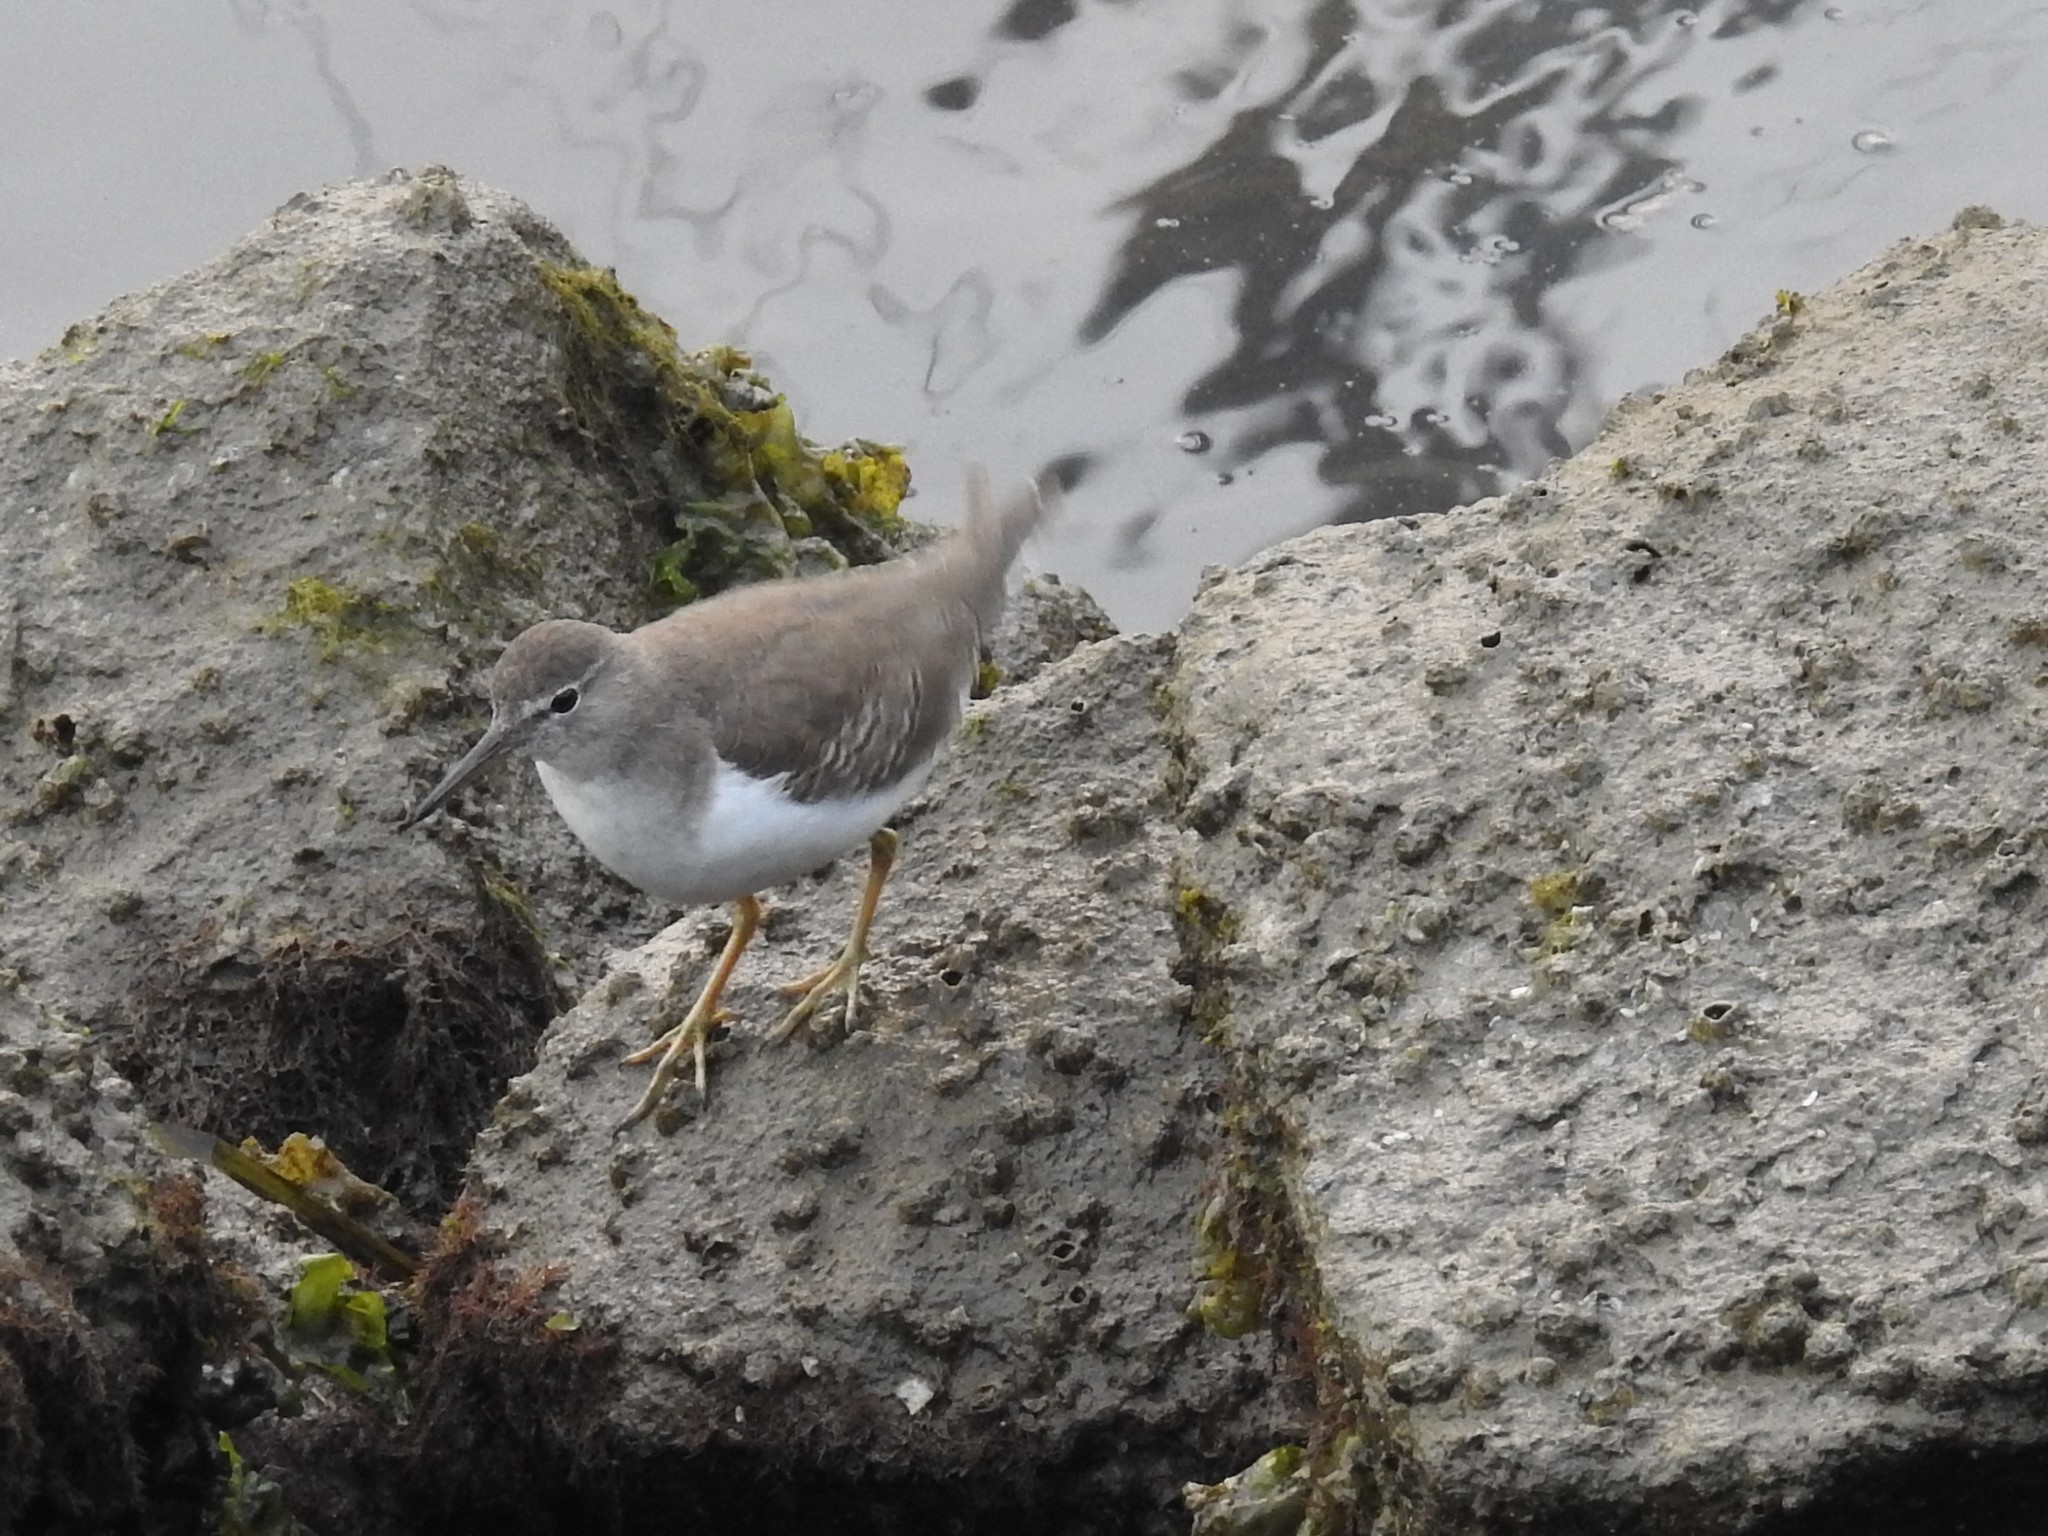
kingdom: Animalia
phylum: Chordata
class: Aves
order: Charadriiformes
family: Scolopacidae
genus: Actitis
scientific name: Actitis macularius
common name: Spotted sandpiper
